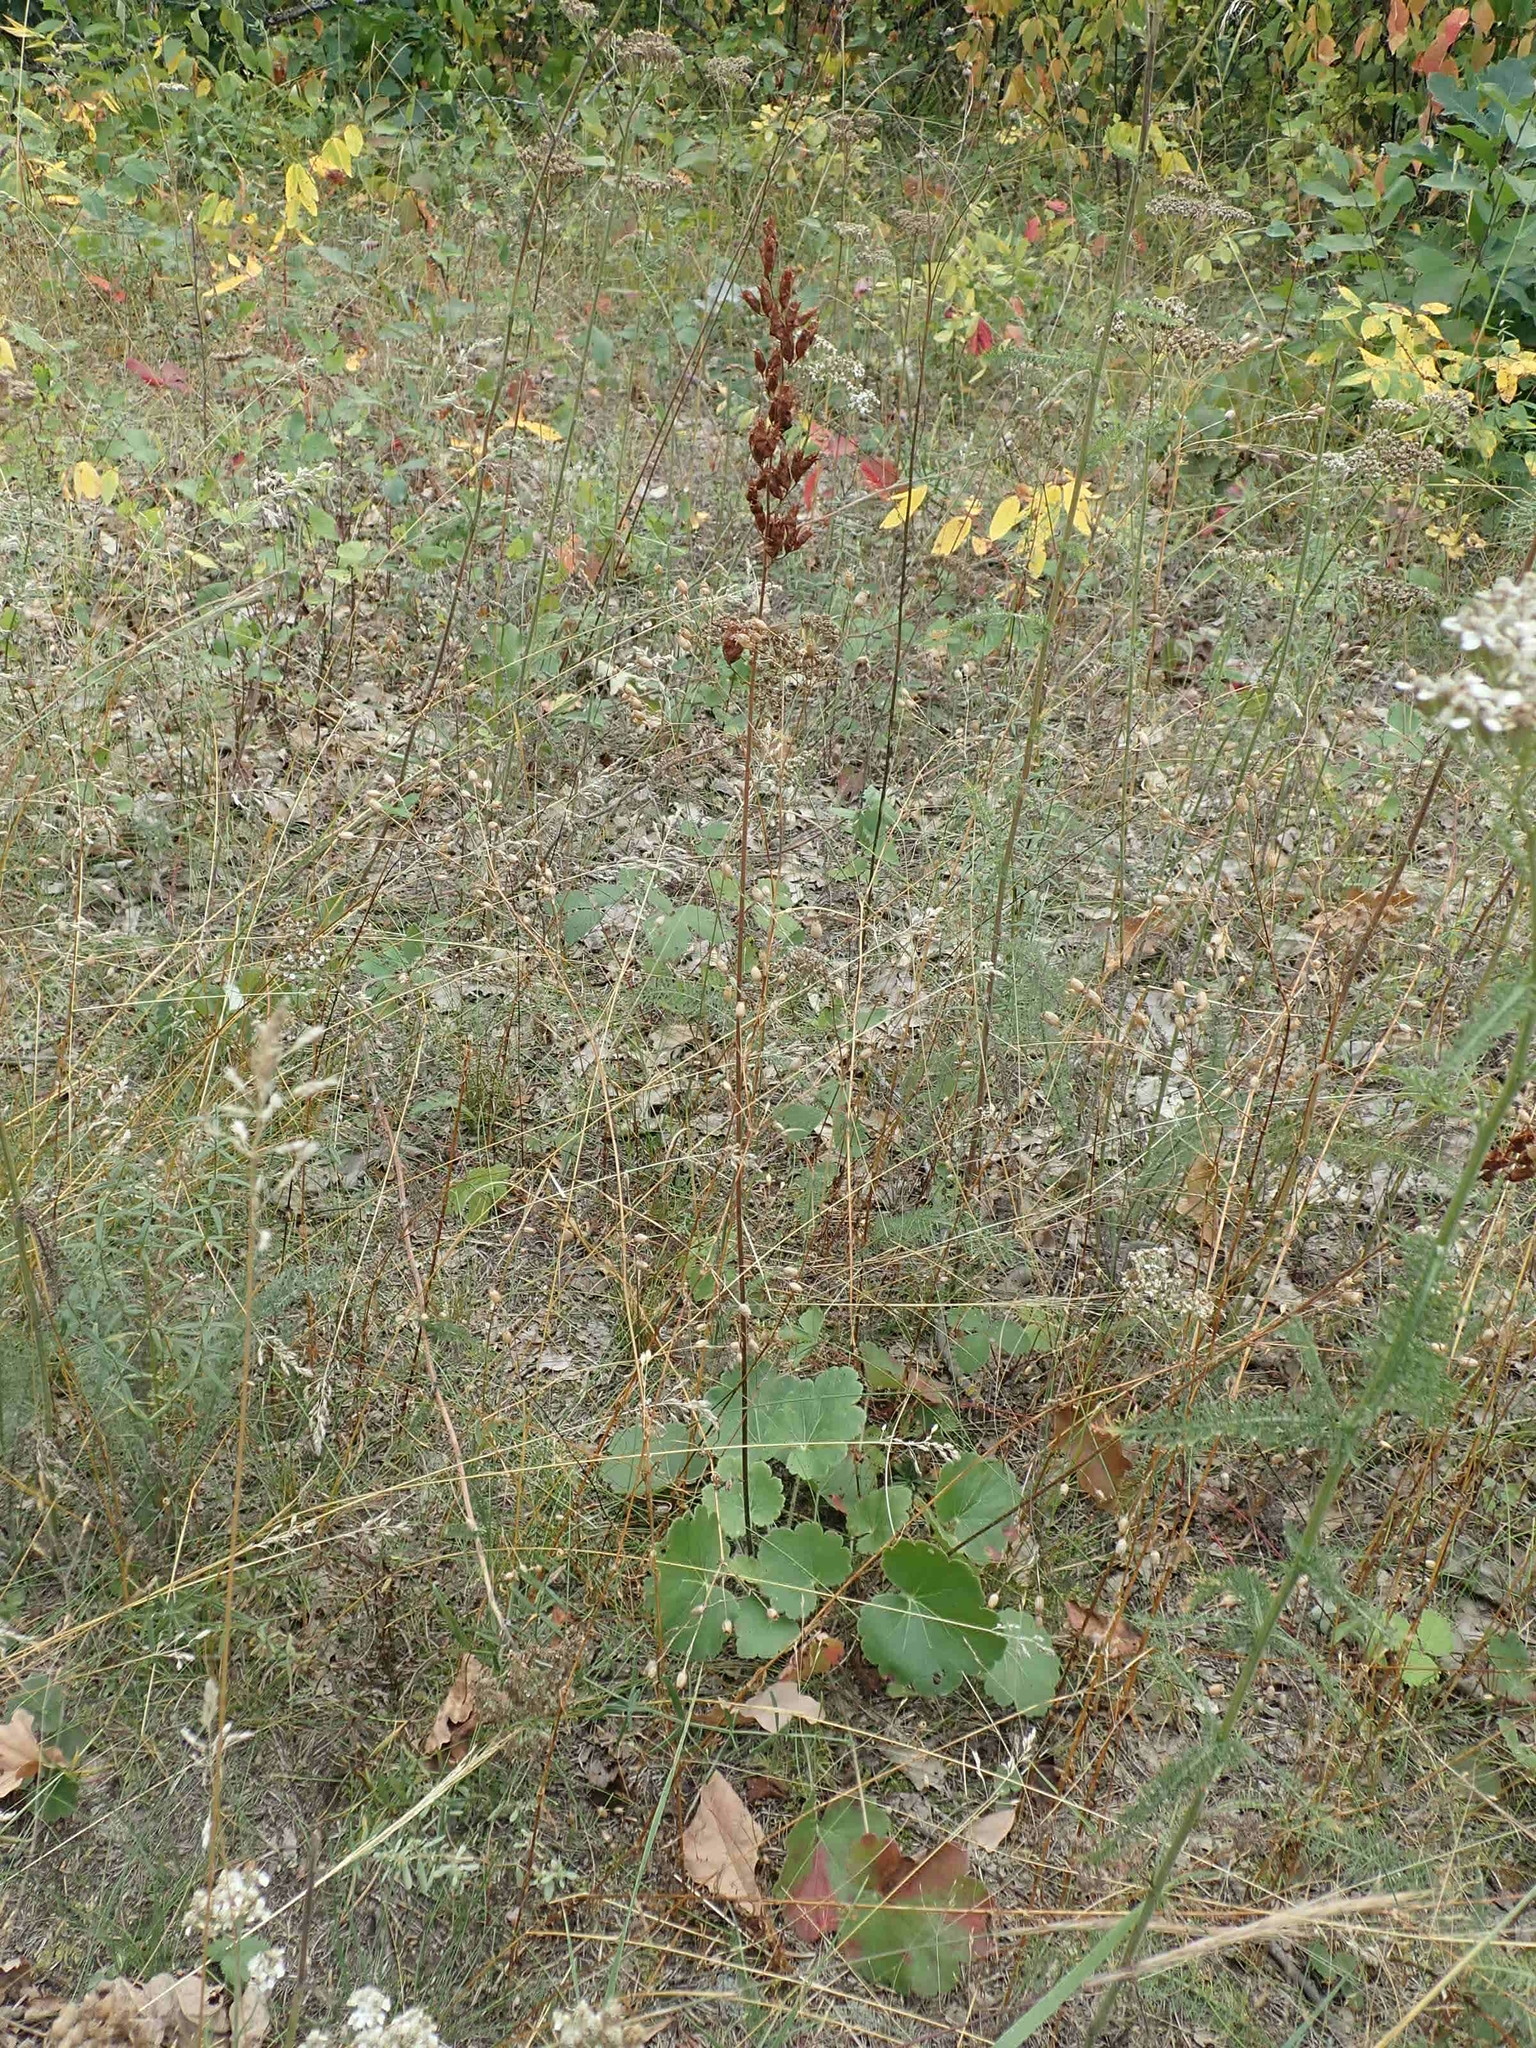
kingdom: Plantae
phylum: Tracheophyta
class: Magnoliopsida
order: Saxifragales
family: Saxifragaceae
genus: Heuchera
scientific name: Heuchera richardsonii
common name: Richardson's alumroot
